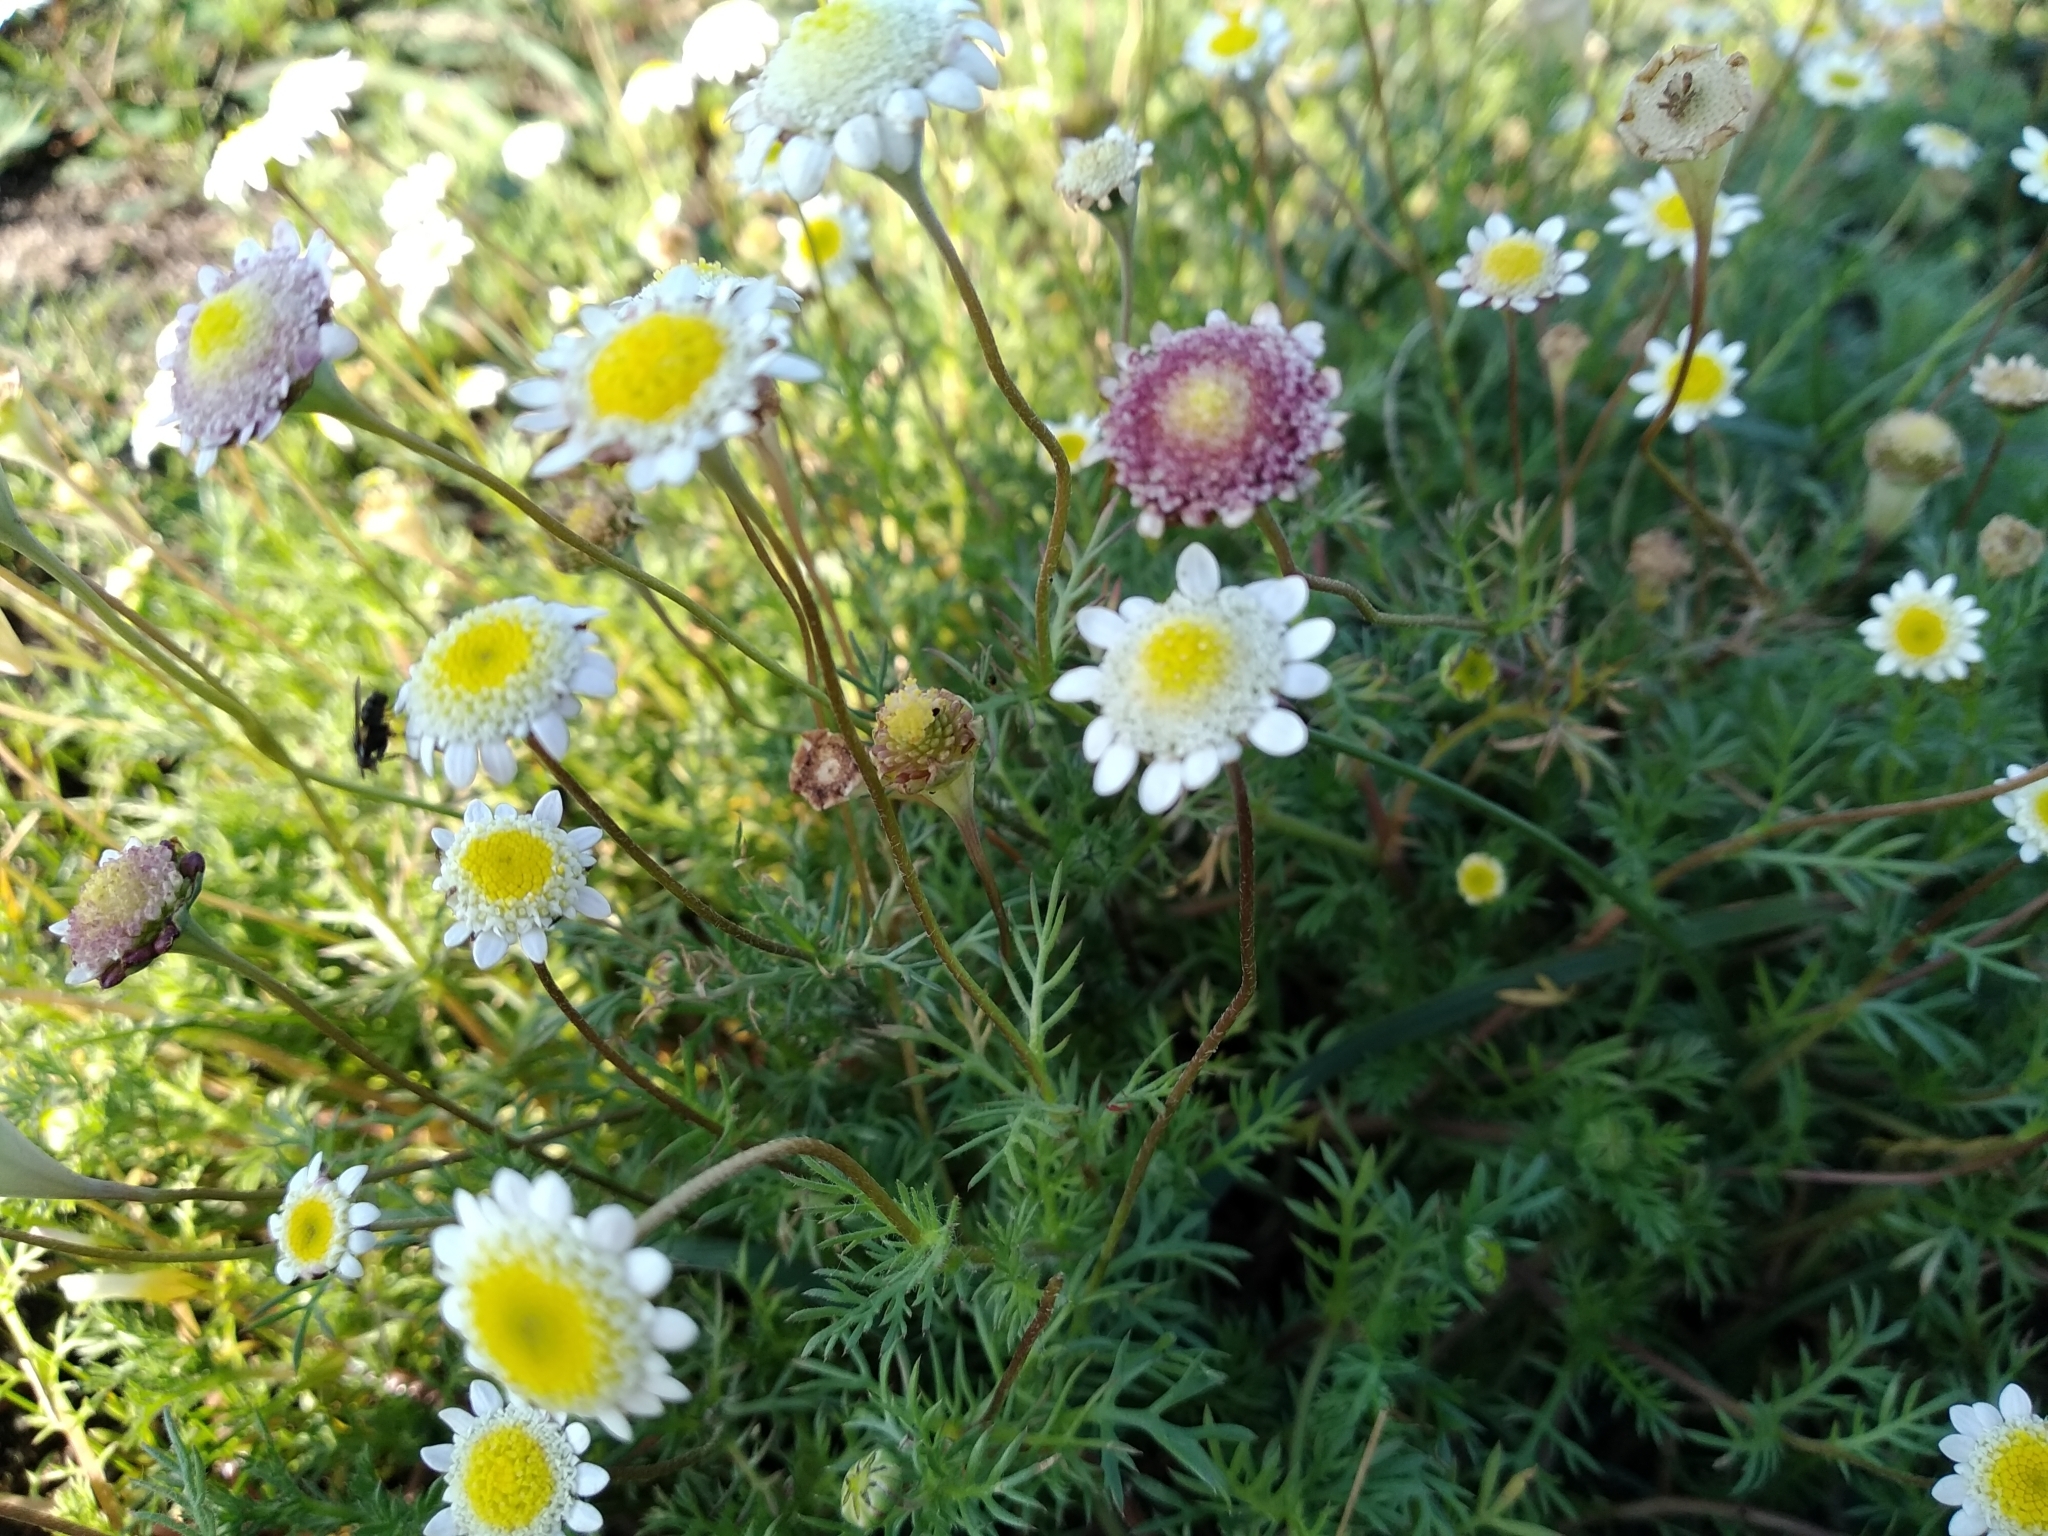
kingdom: Plantae
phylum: Tracheophyta
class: Magnoliopsida
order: Asterales
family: Asteraceae
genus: Cotula
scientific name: Cotula turbinata
